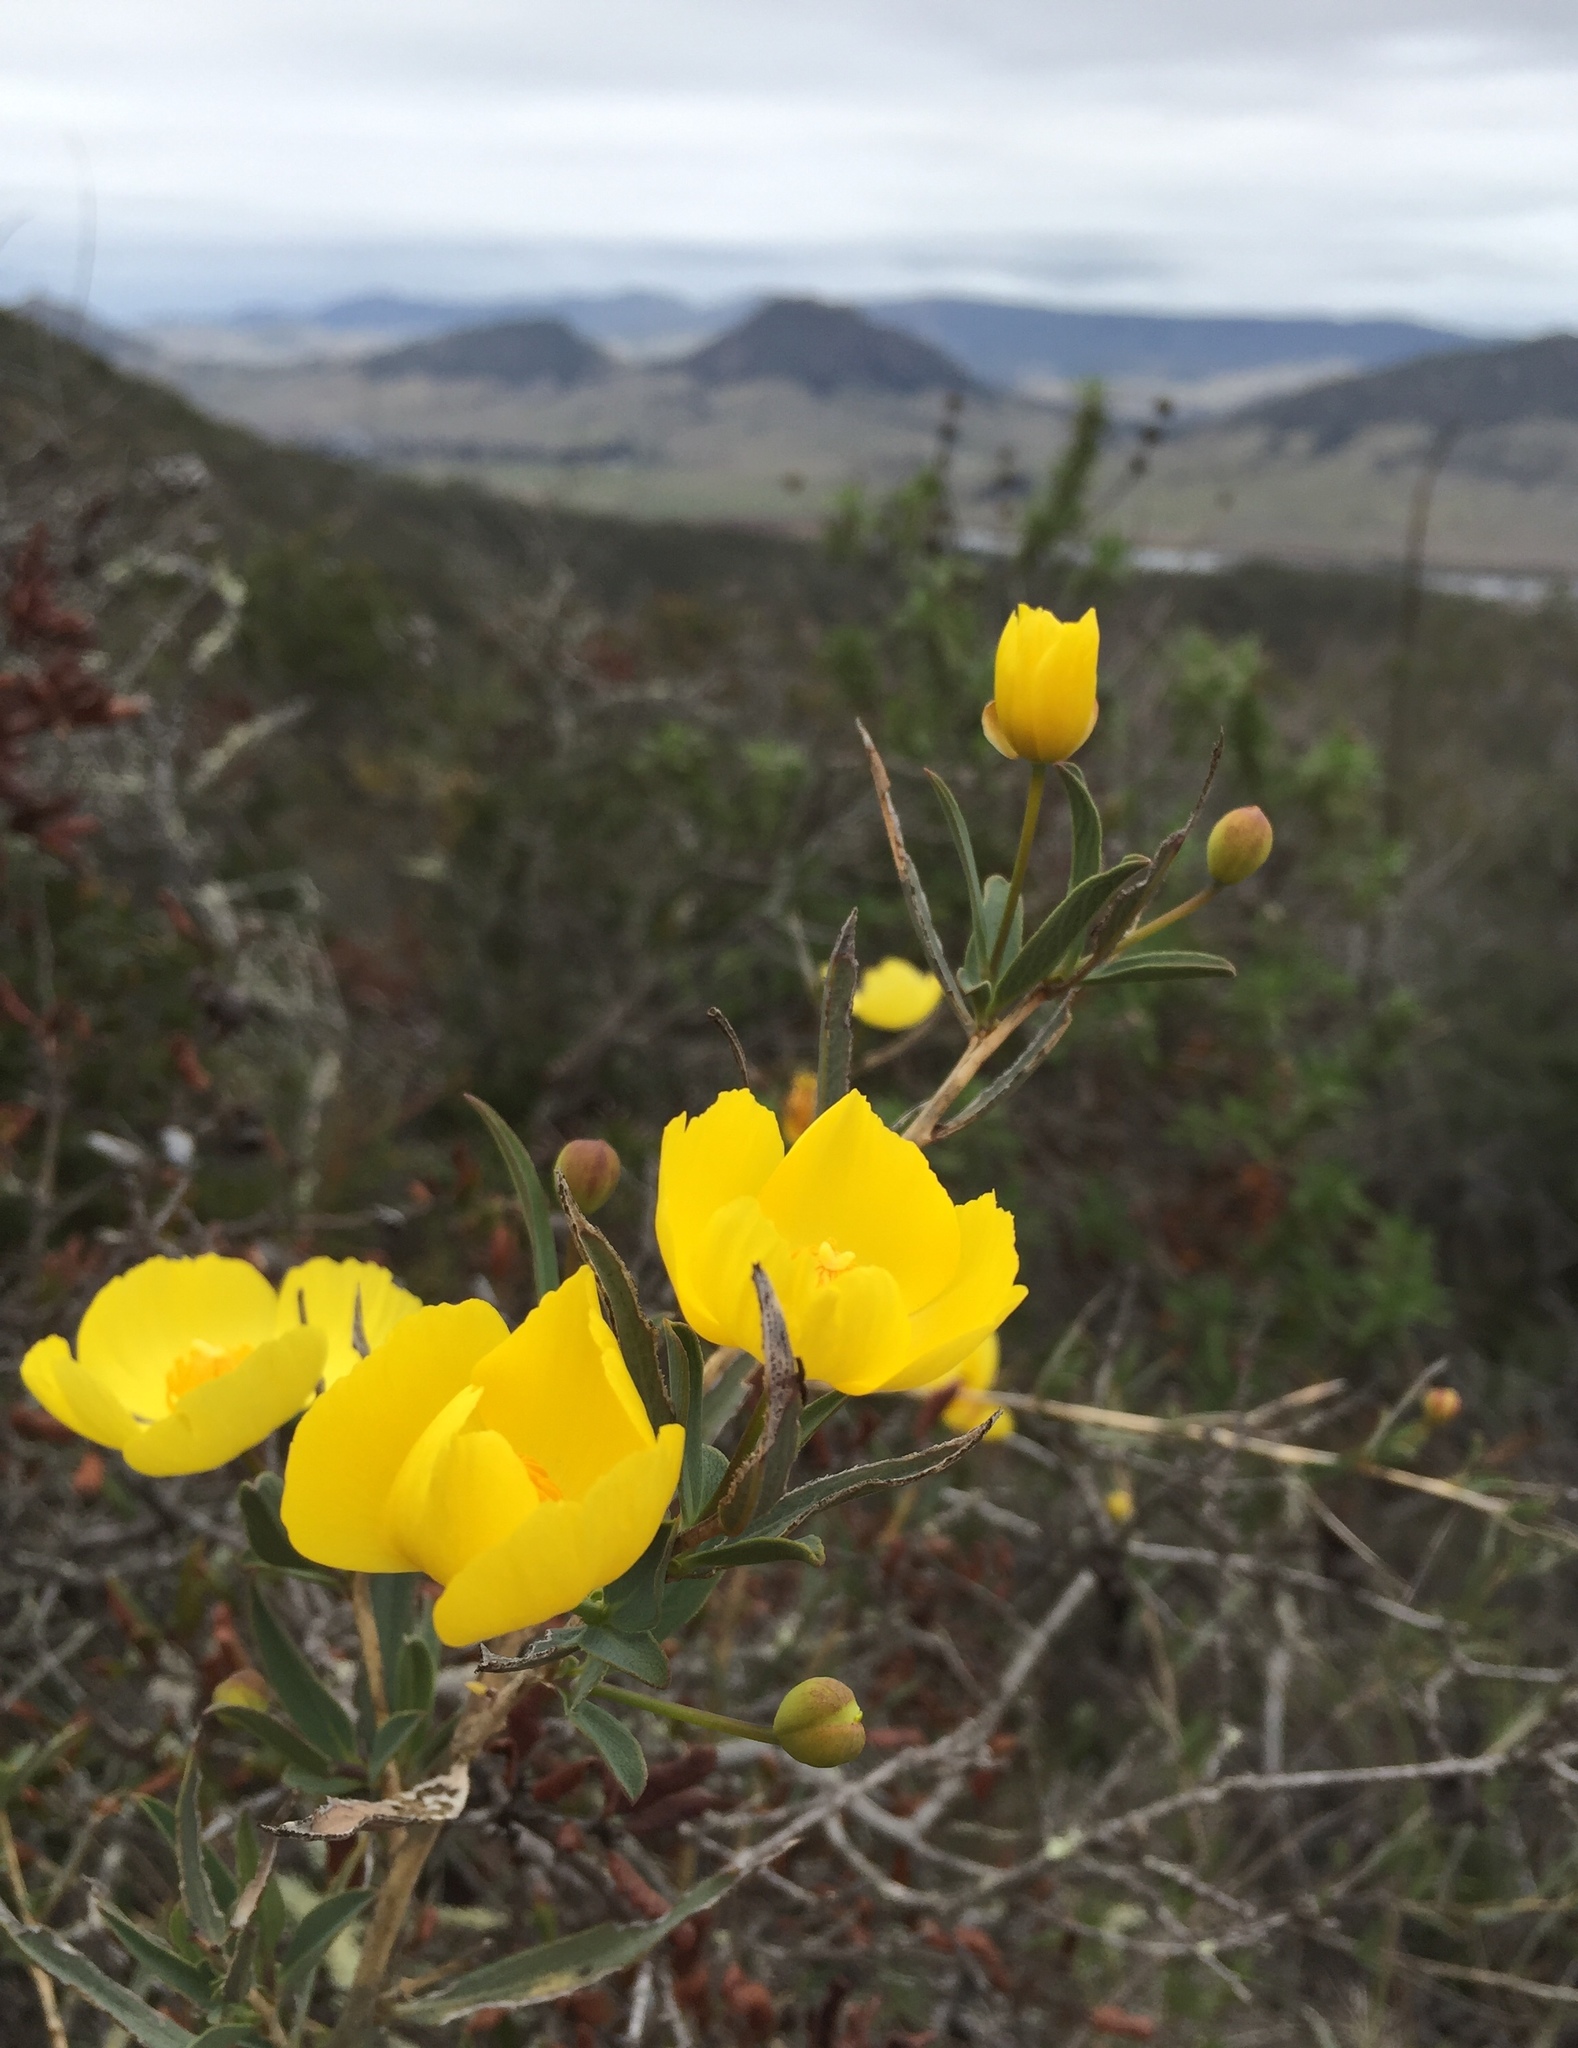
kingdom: Plantae
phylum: Tracheophyta
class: Magnoliopsida
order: Ranunculales
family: Papaveraceae
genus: Dendromecon
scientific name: Dendromecon rigida
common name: Tree poppy
